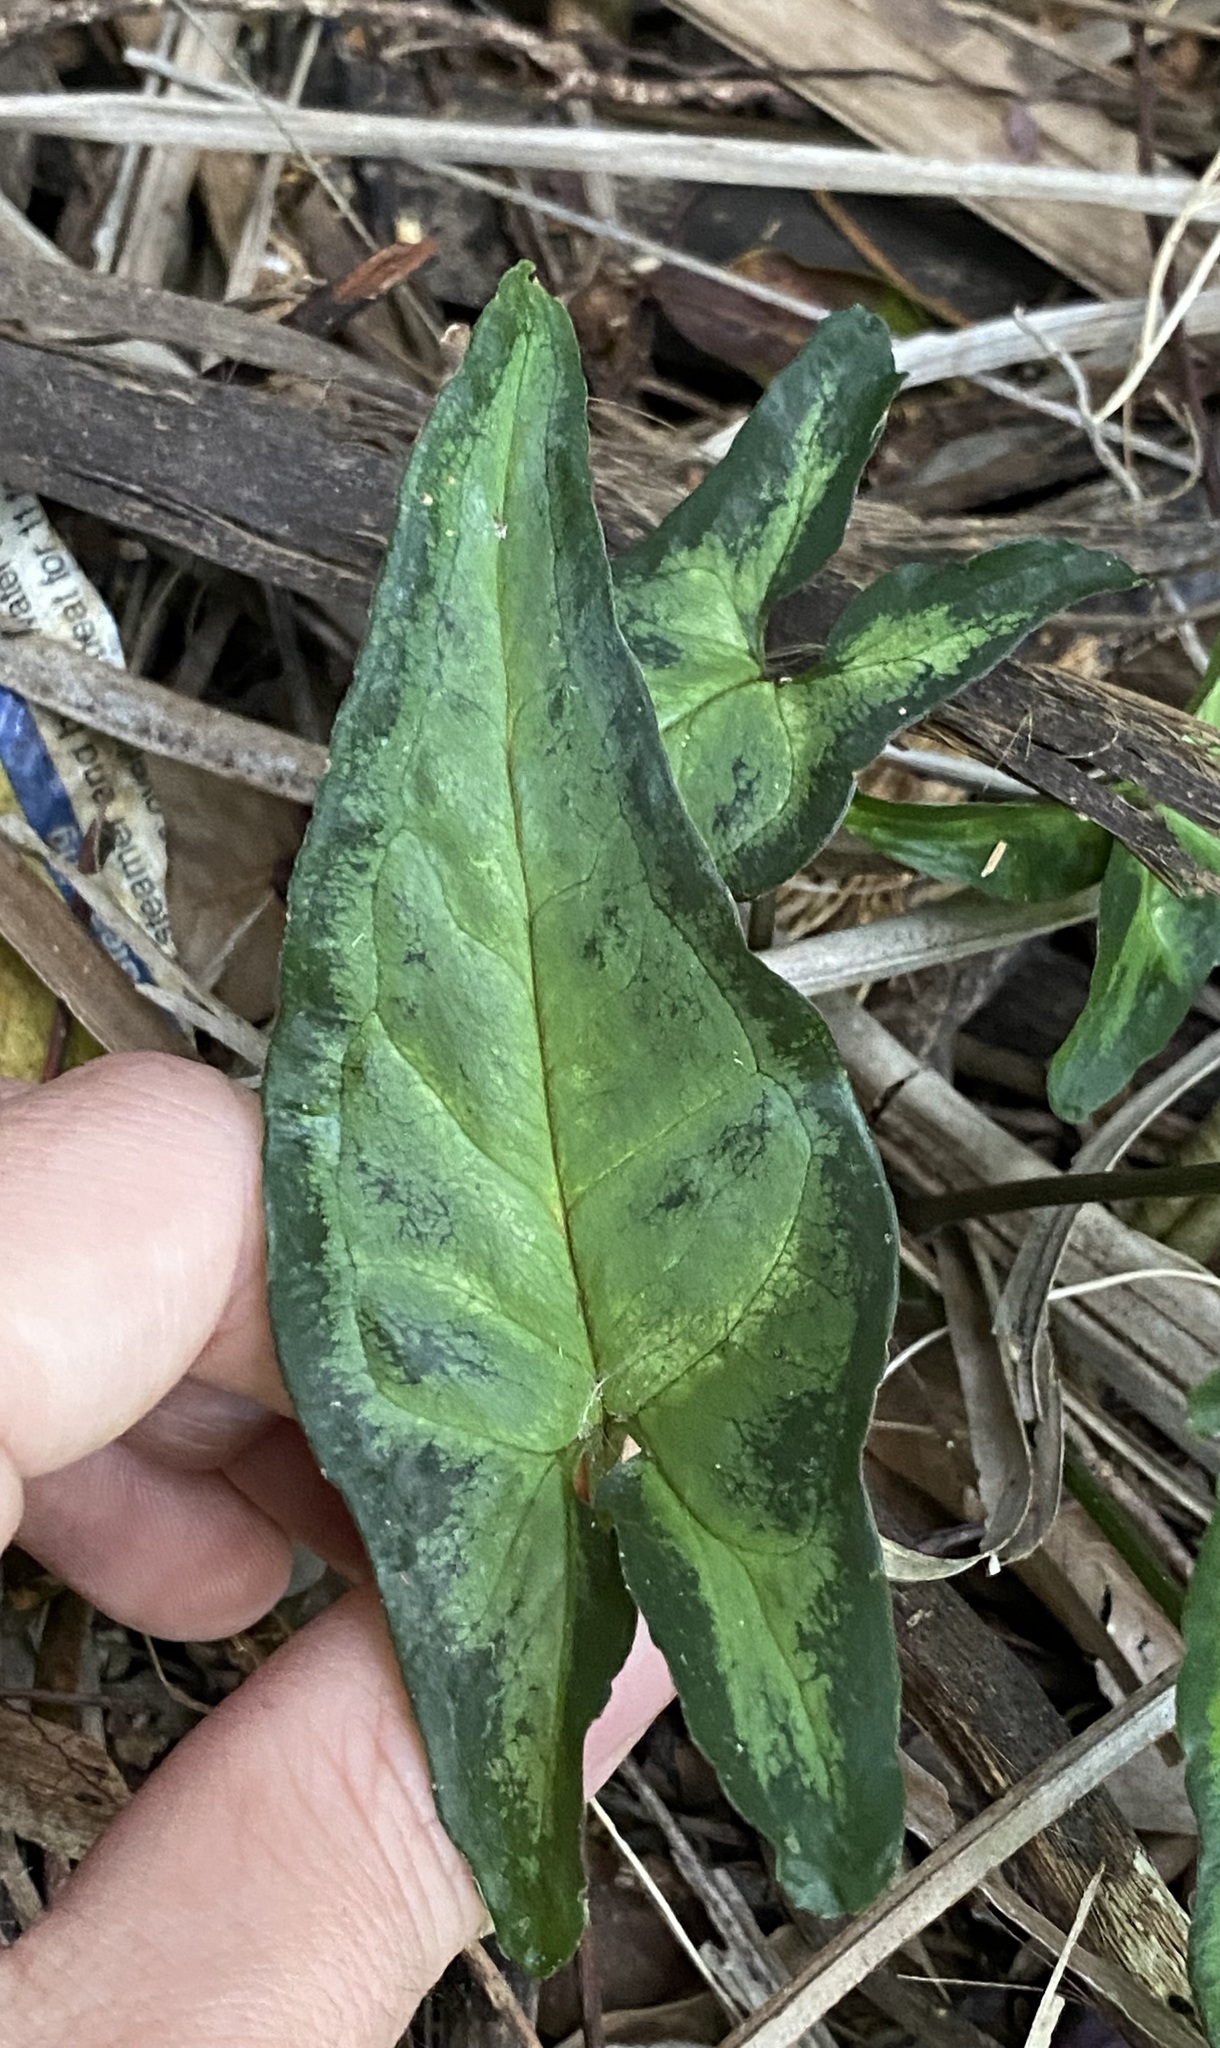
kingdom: Plantae
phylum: Tracheophyta
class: Liliopsida
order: Alismatales
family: Araceae
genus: Syngonium
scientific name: Syngonium podophyllum
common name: American evergreen
